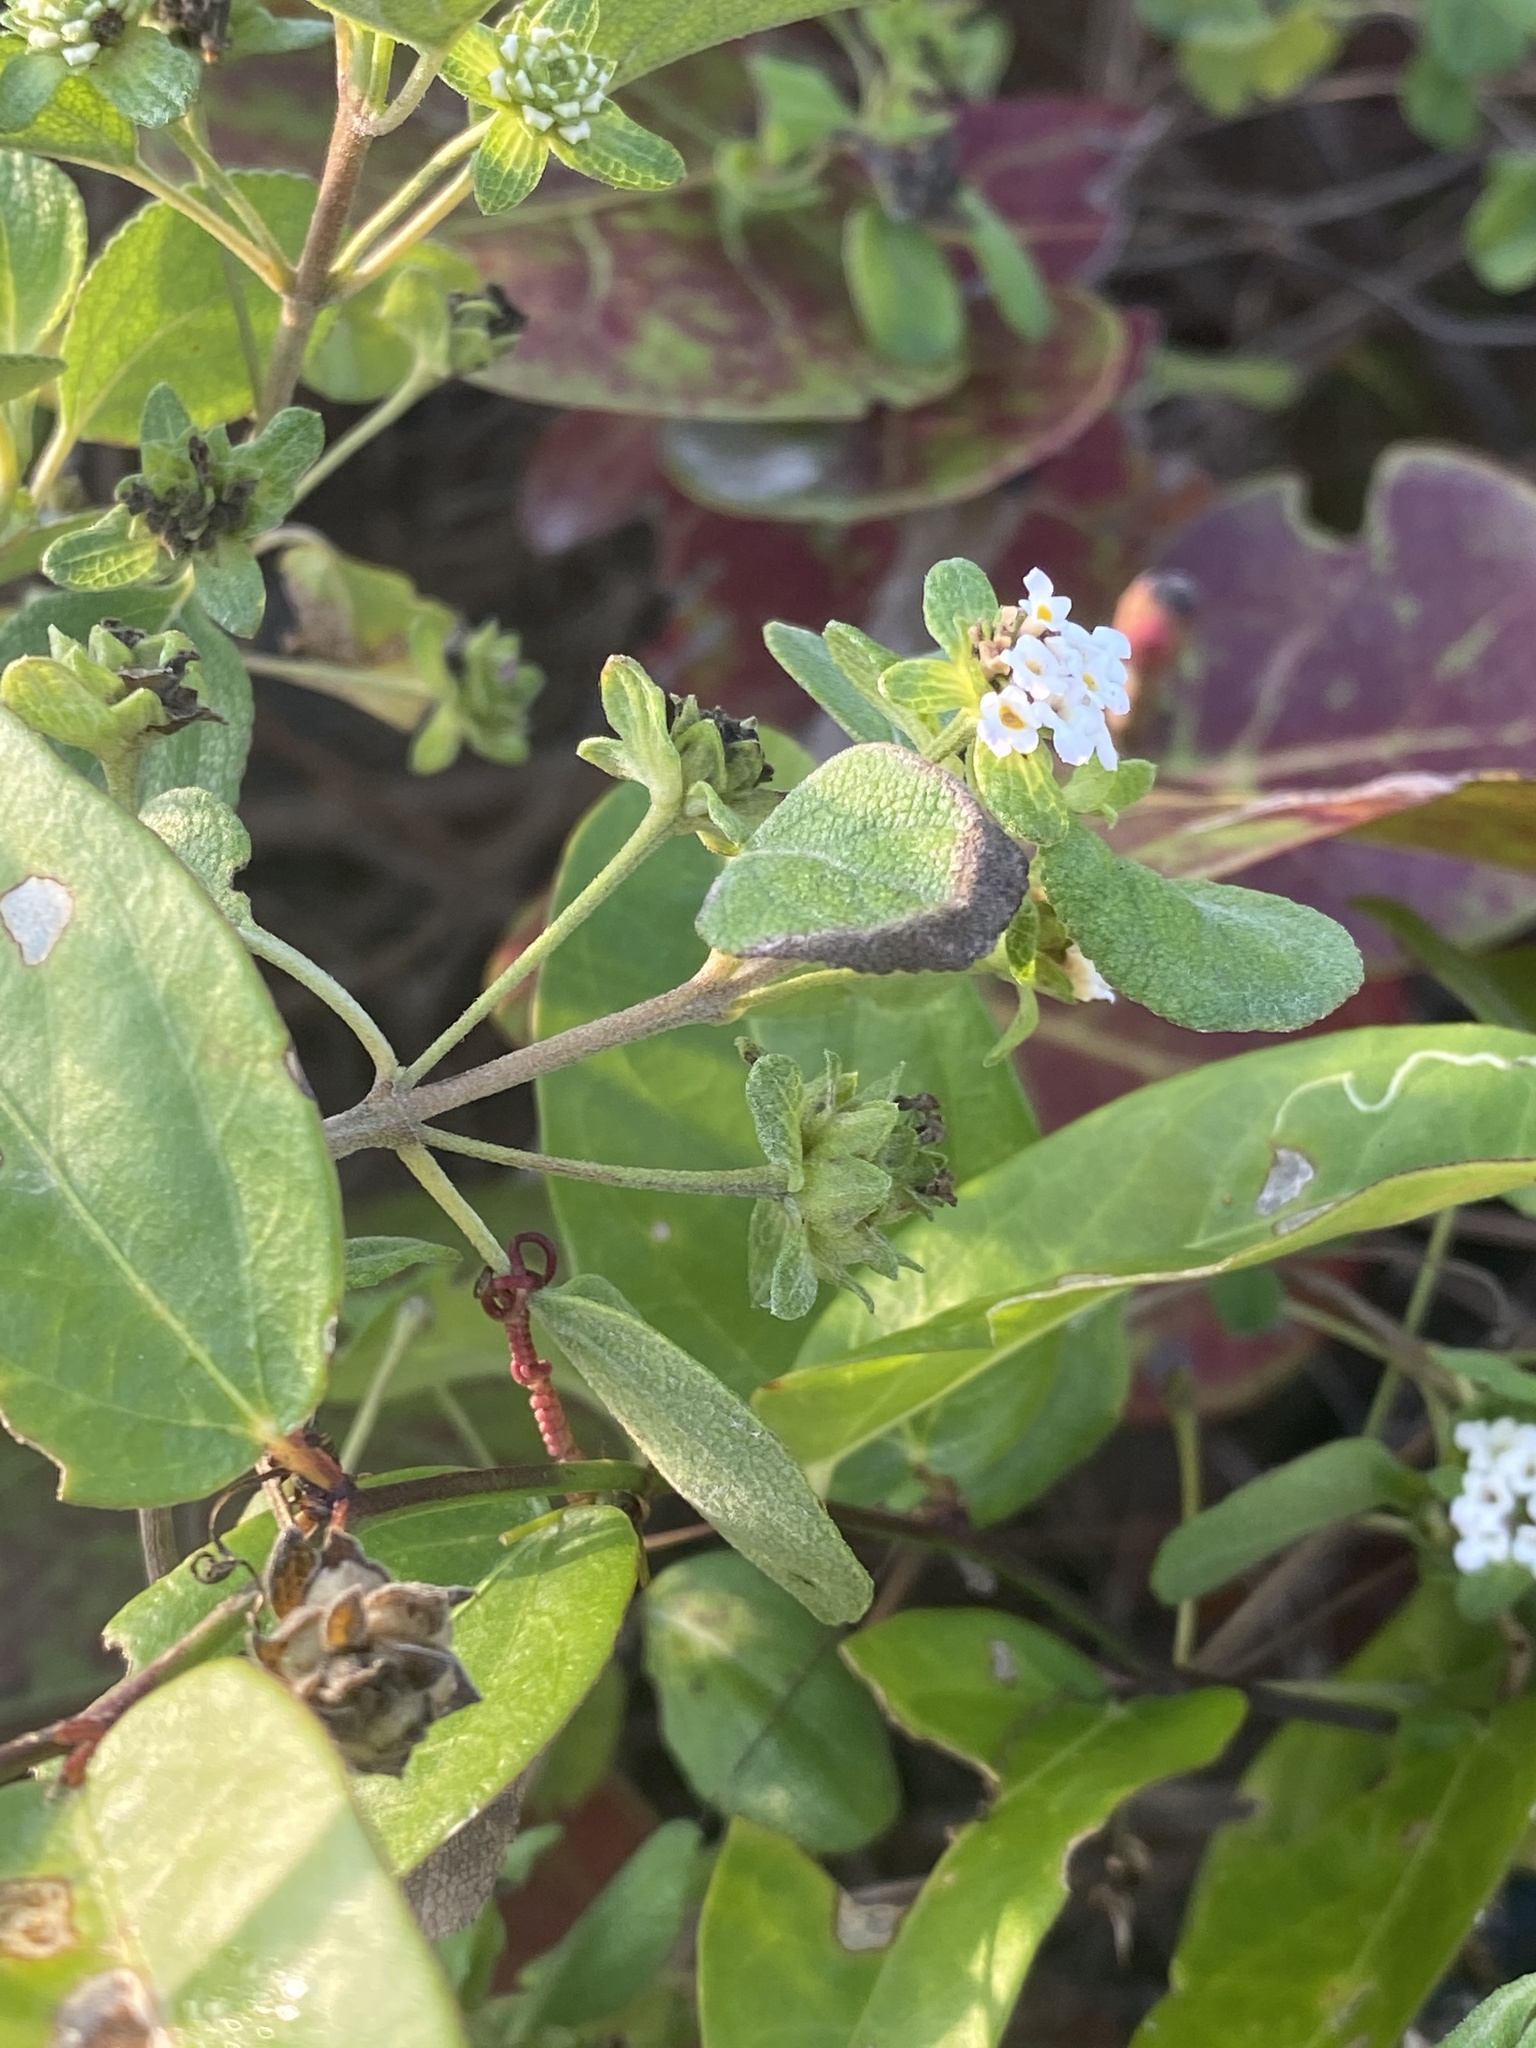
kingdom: Plantae
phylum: Tracheophyta
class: Magnoliopsida
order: Lamiales
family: Verbenaceae
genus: Lantana
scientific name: Lantana involucrata
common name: Black sage
